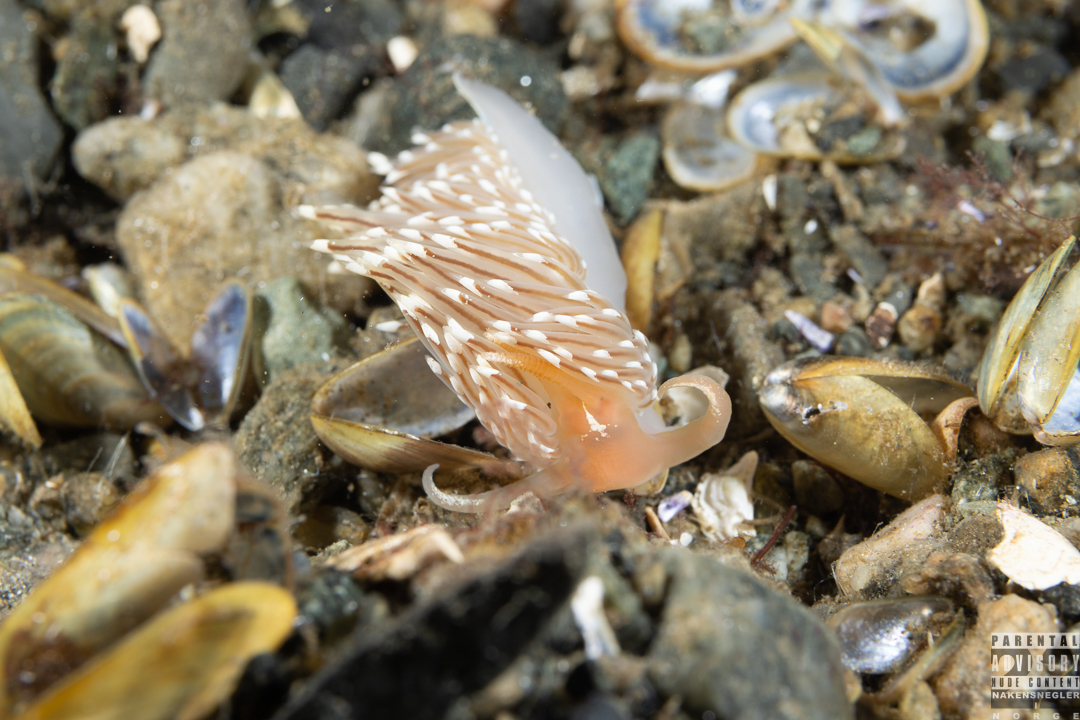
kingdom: Animalia
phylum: Mollusca
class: Gastropoda
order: Nudibranchia
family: Facelinidae
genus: Facelina
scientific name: Facelina bostoniensis
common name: Boston facelina
